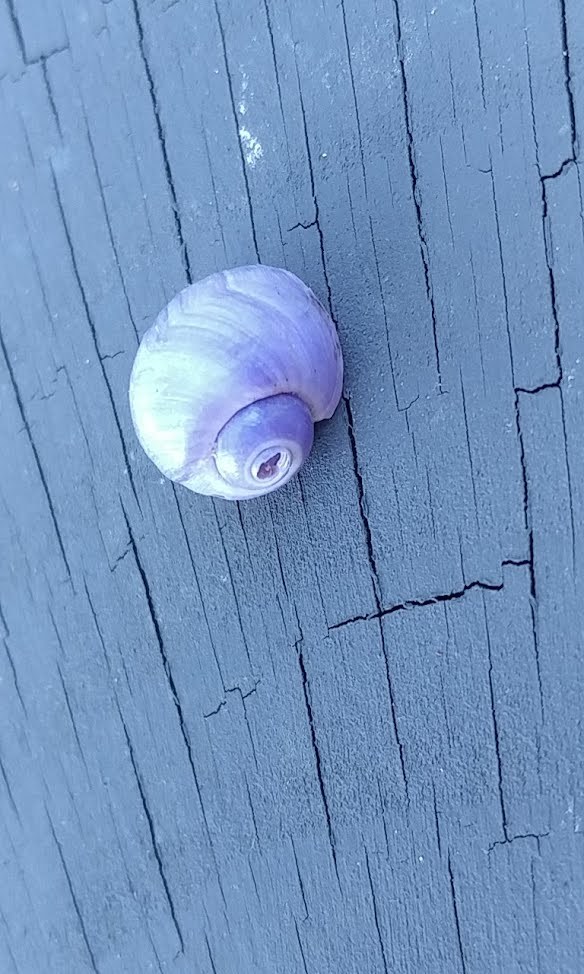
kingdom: Animalia
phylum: Mollusca
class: Gastropoda
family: Epitoniidae
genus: Janthina
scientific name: Janthina globosa
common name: Elongate janthina
